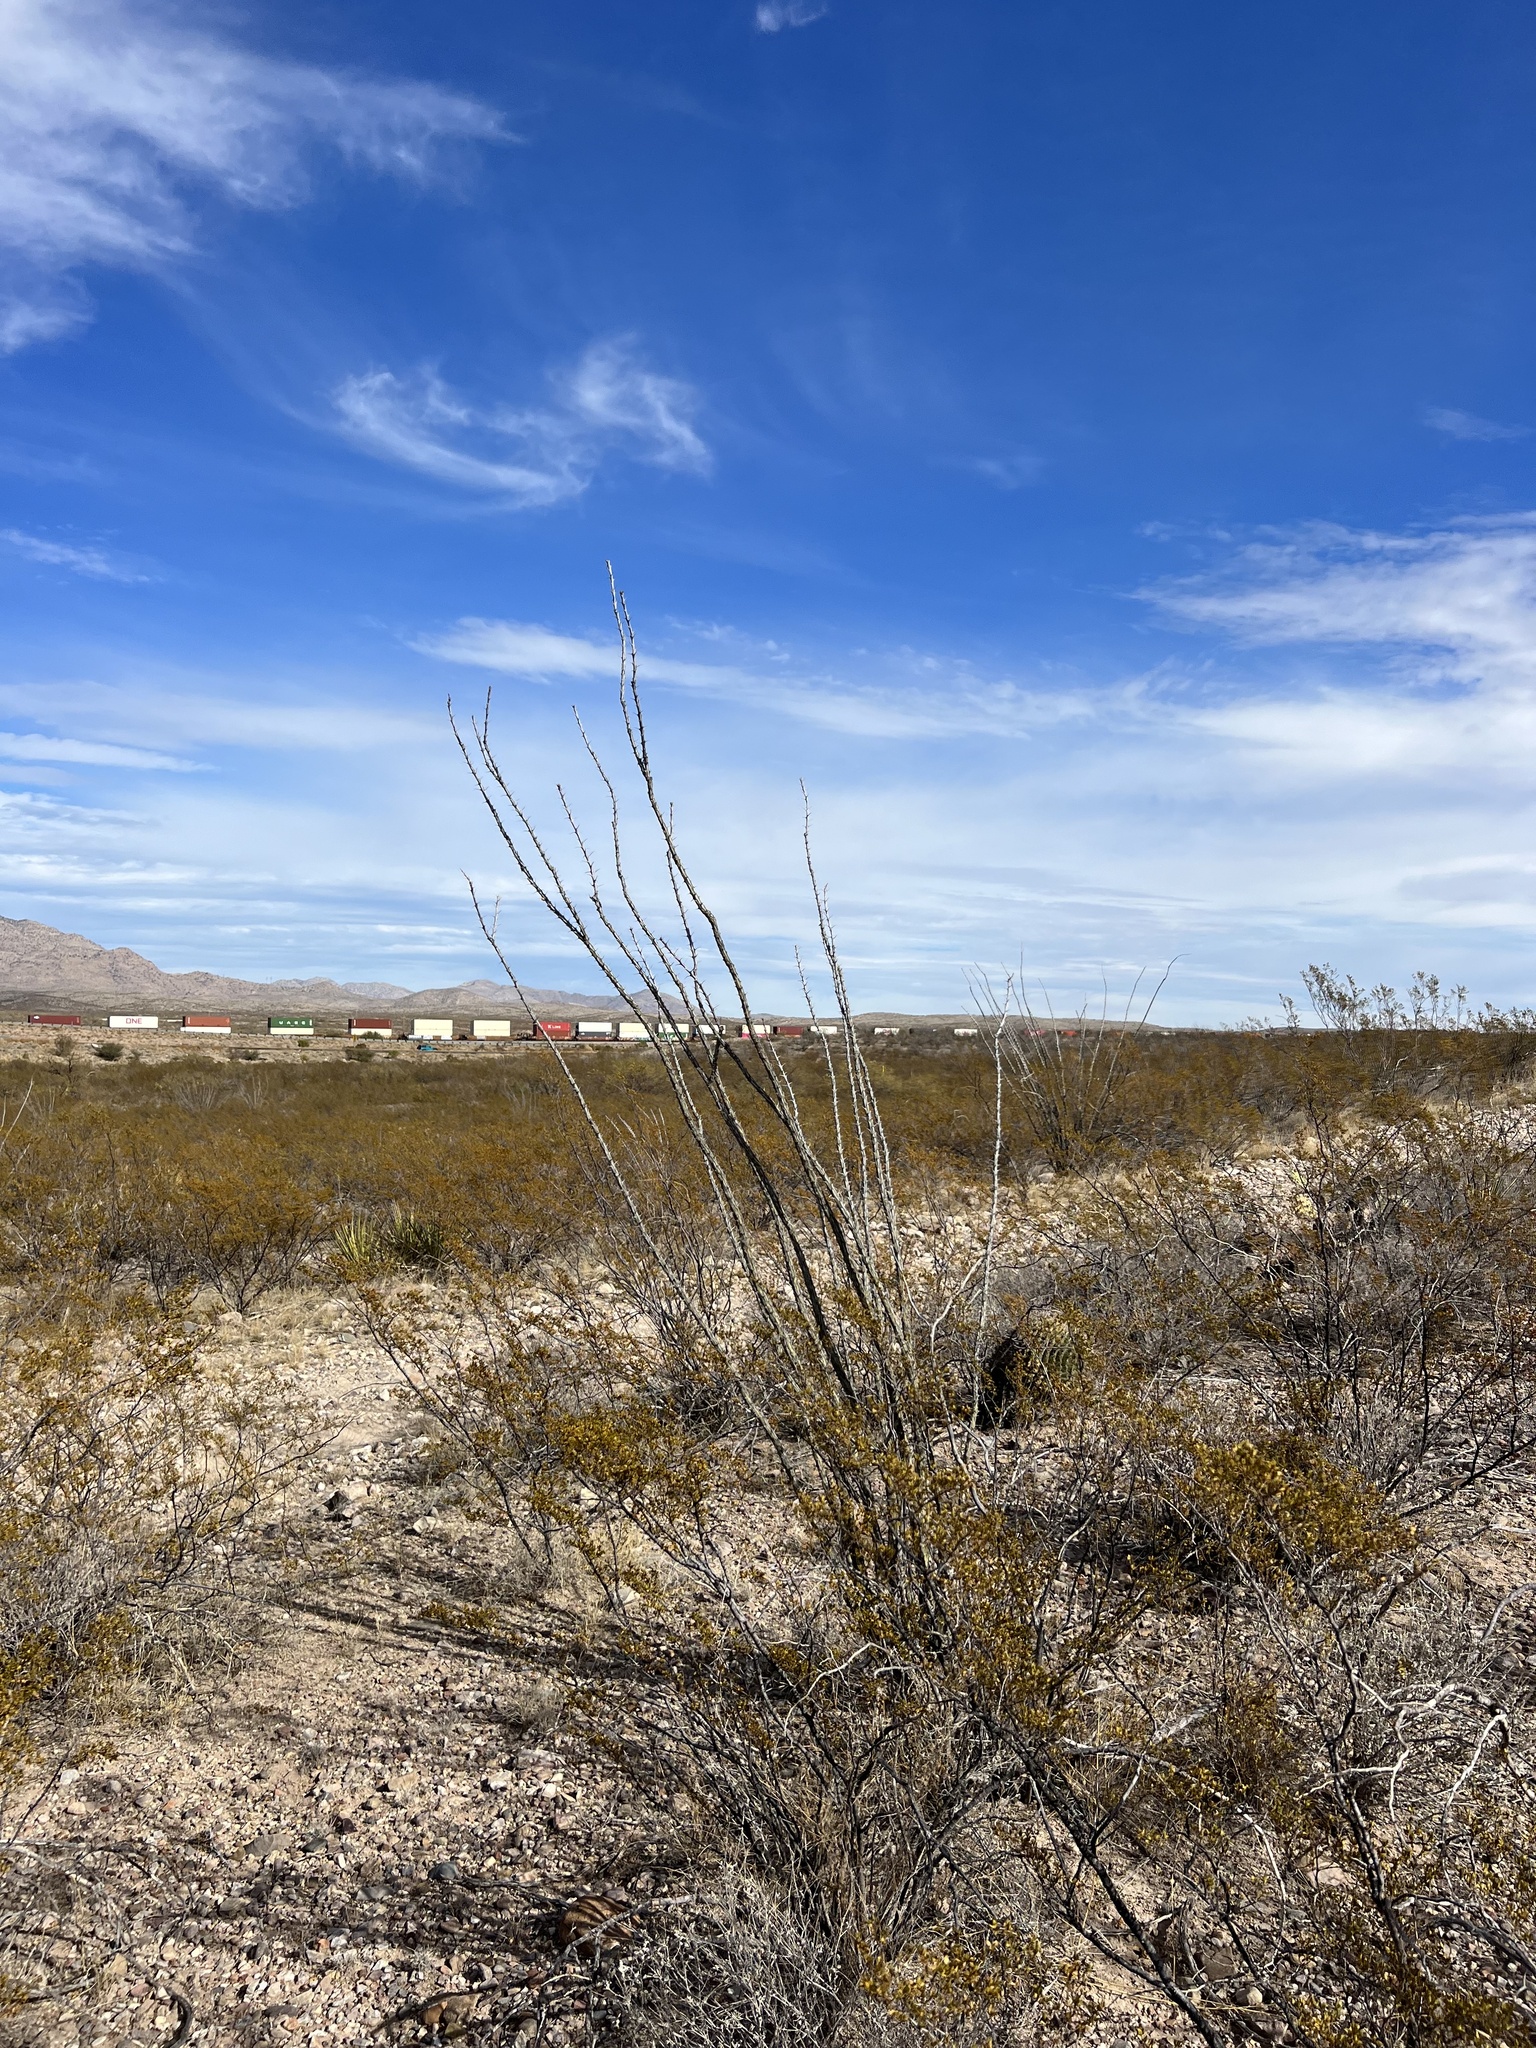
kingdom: Plantae
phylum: Tracheophyta
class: Magnoliopsida
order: Ericales
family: Fouquieriaceae
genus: Fouquieria
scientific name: Fouquieria splendens
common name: Vine-cactus
